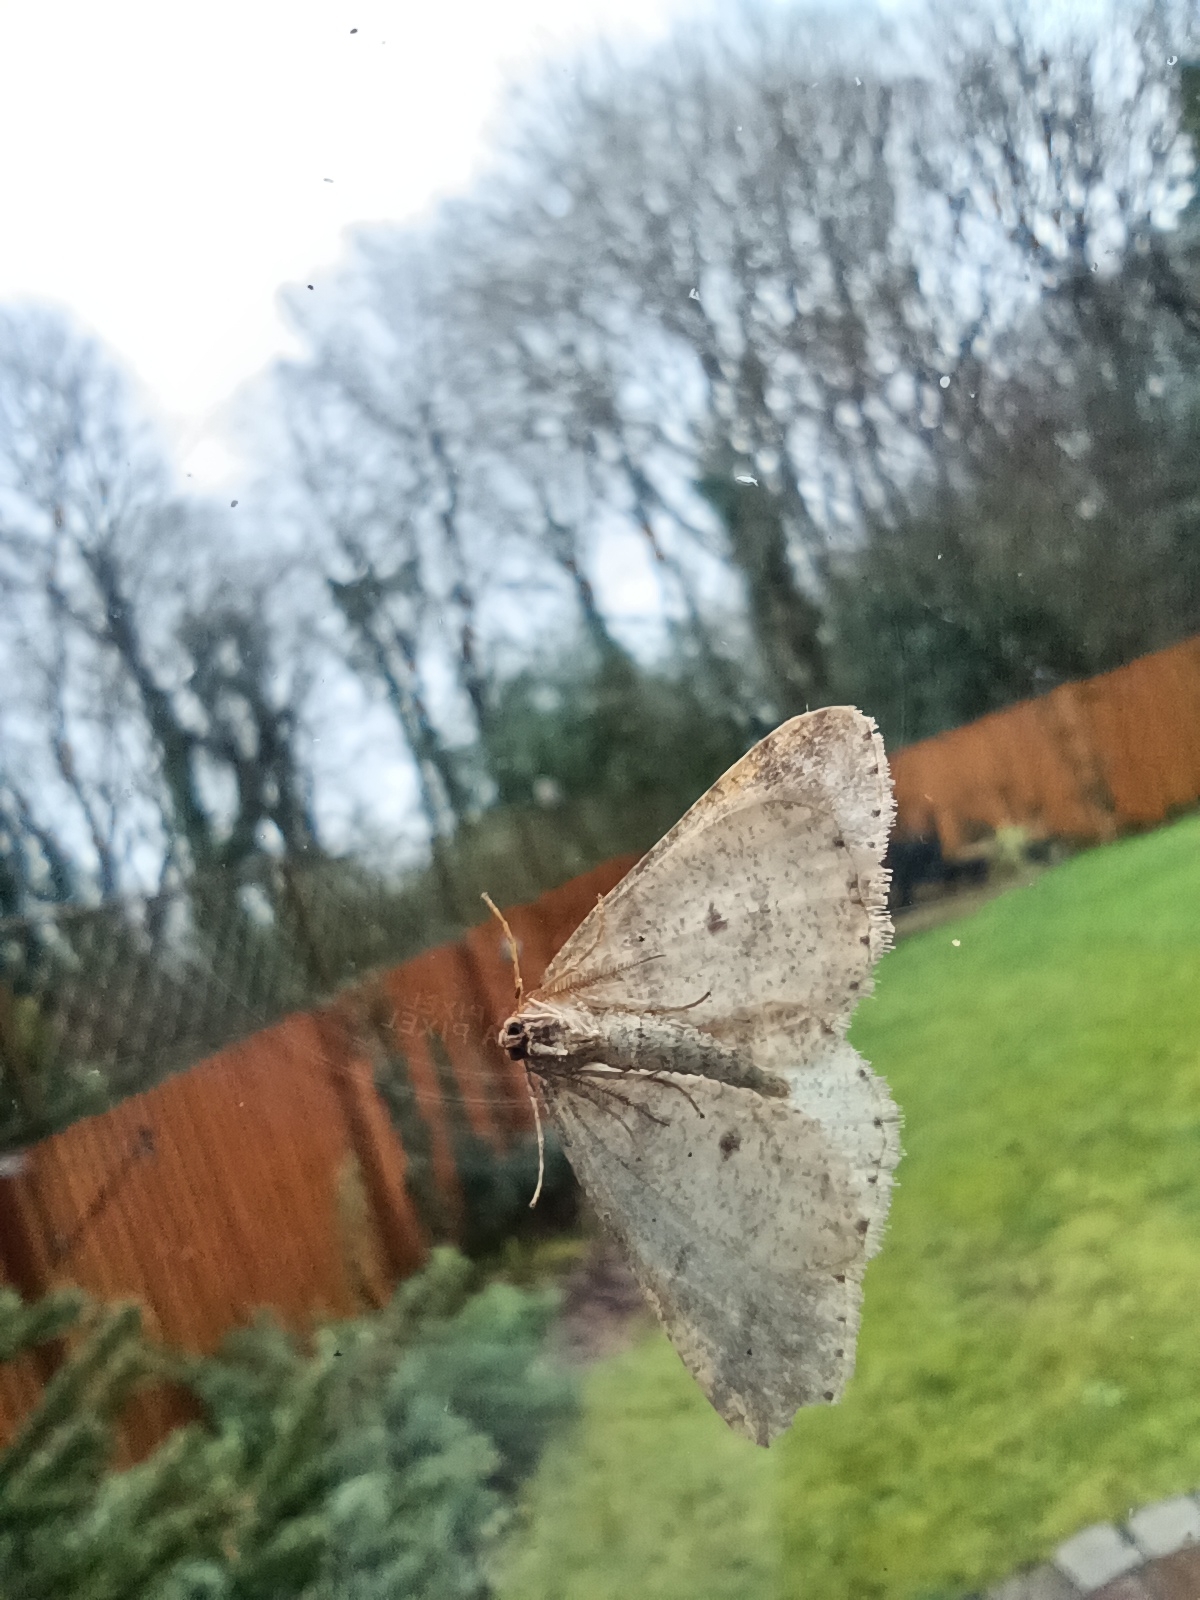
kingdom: Animalia
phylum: Arthropoda
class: Insecta
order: Lepidoptera
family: Geometridae
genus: Agriopis
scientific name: Agriopis marginaria
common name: Dotted border
